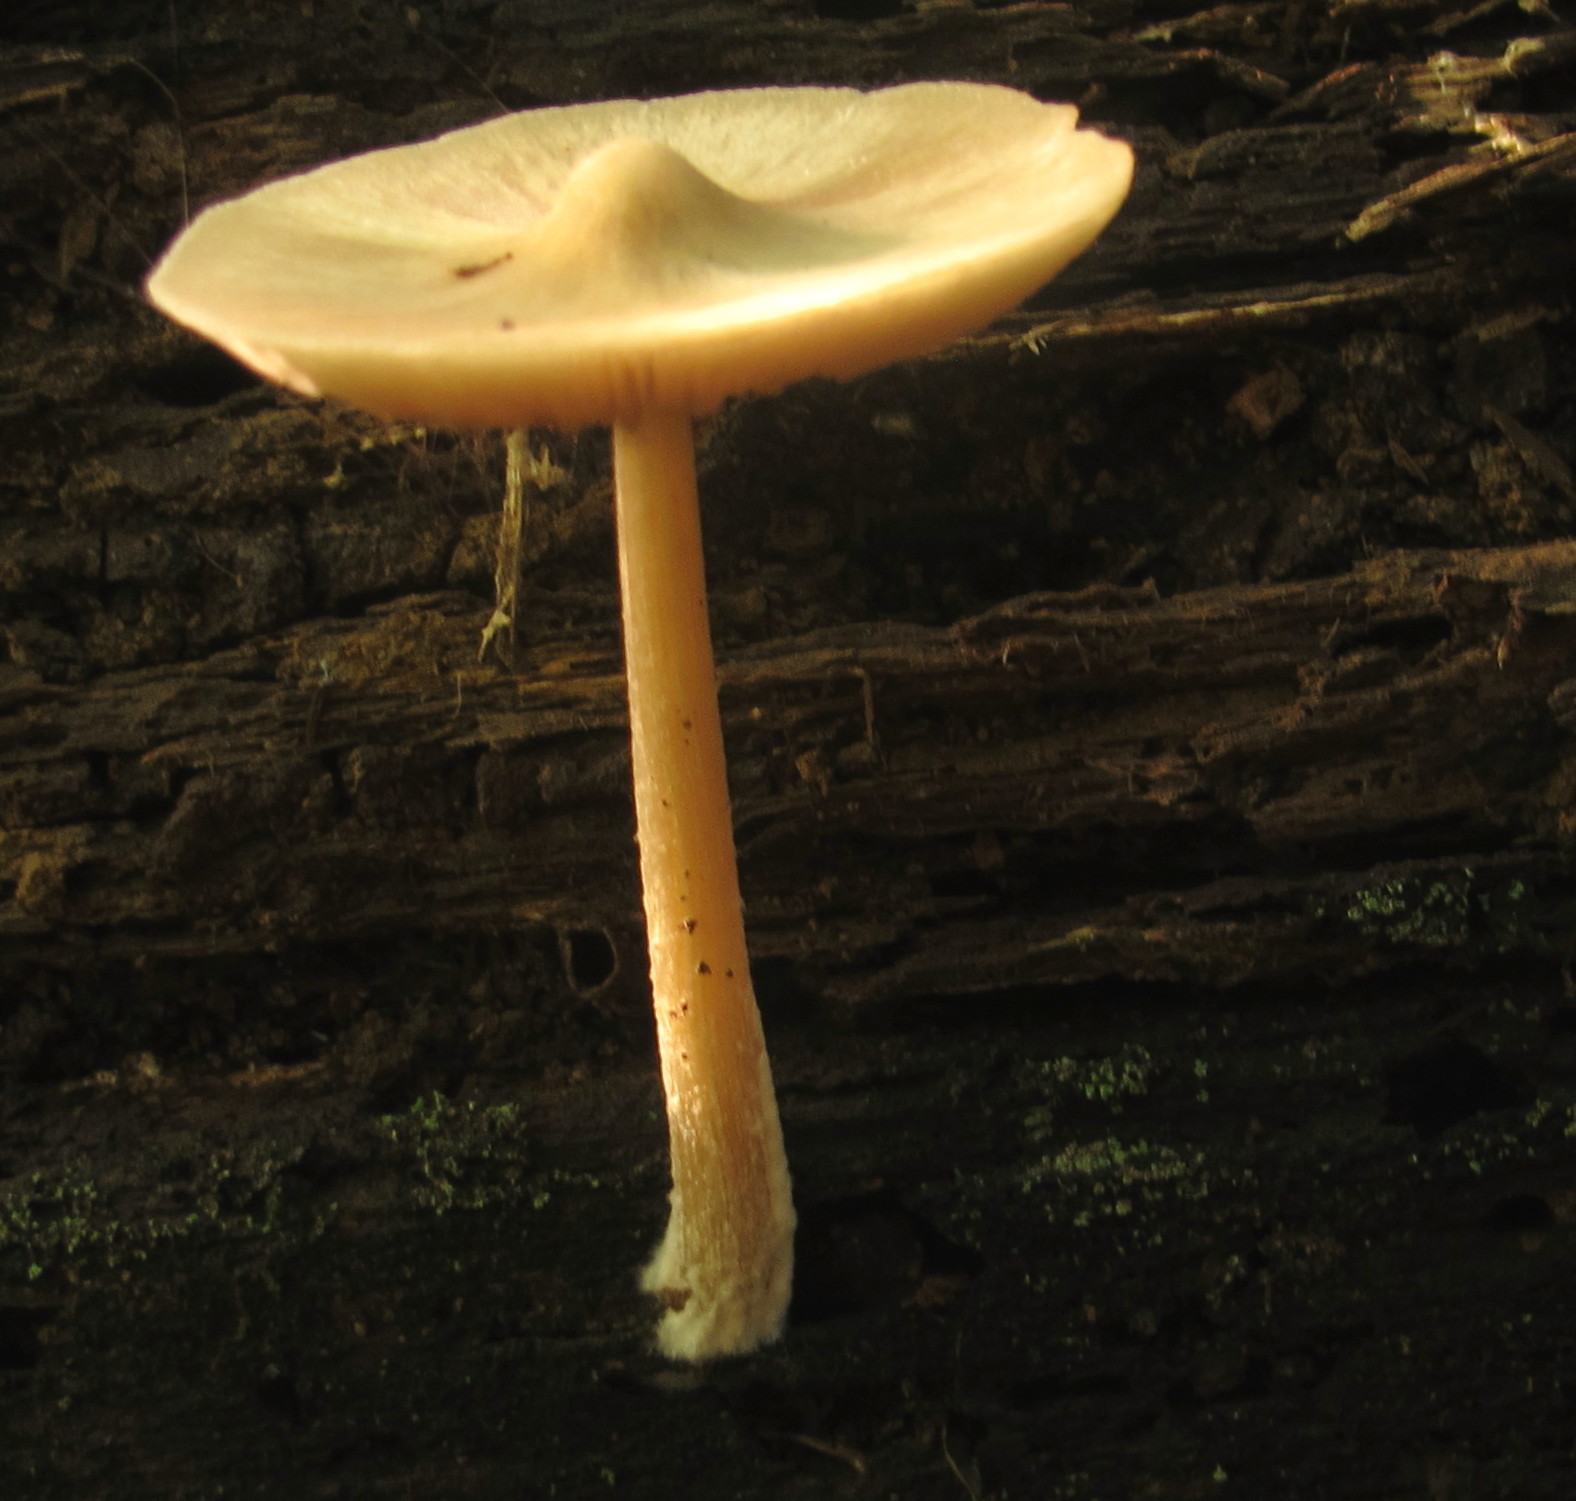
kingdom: Fungi
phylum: Basidiomycota
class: Agaricomycetes
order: Agaricales
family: Entolomataceae
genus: Entoloma
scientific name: Entoloma strictius
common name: Straight-stalked entoloma
